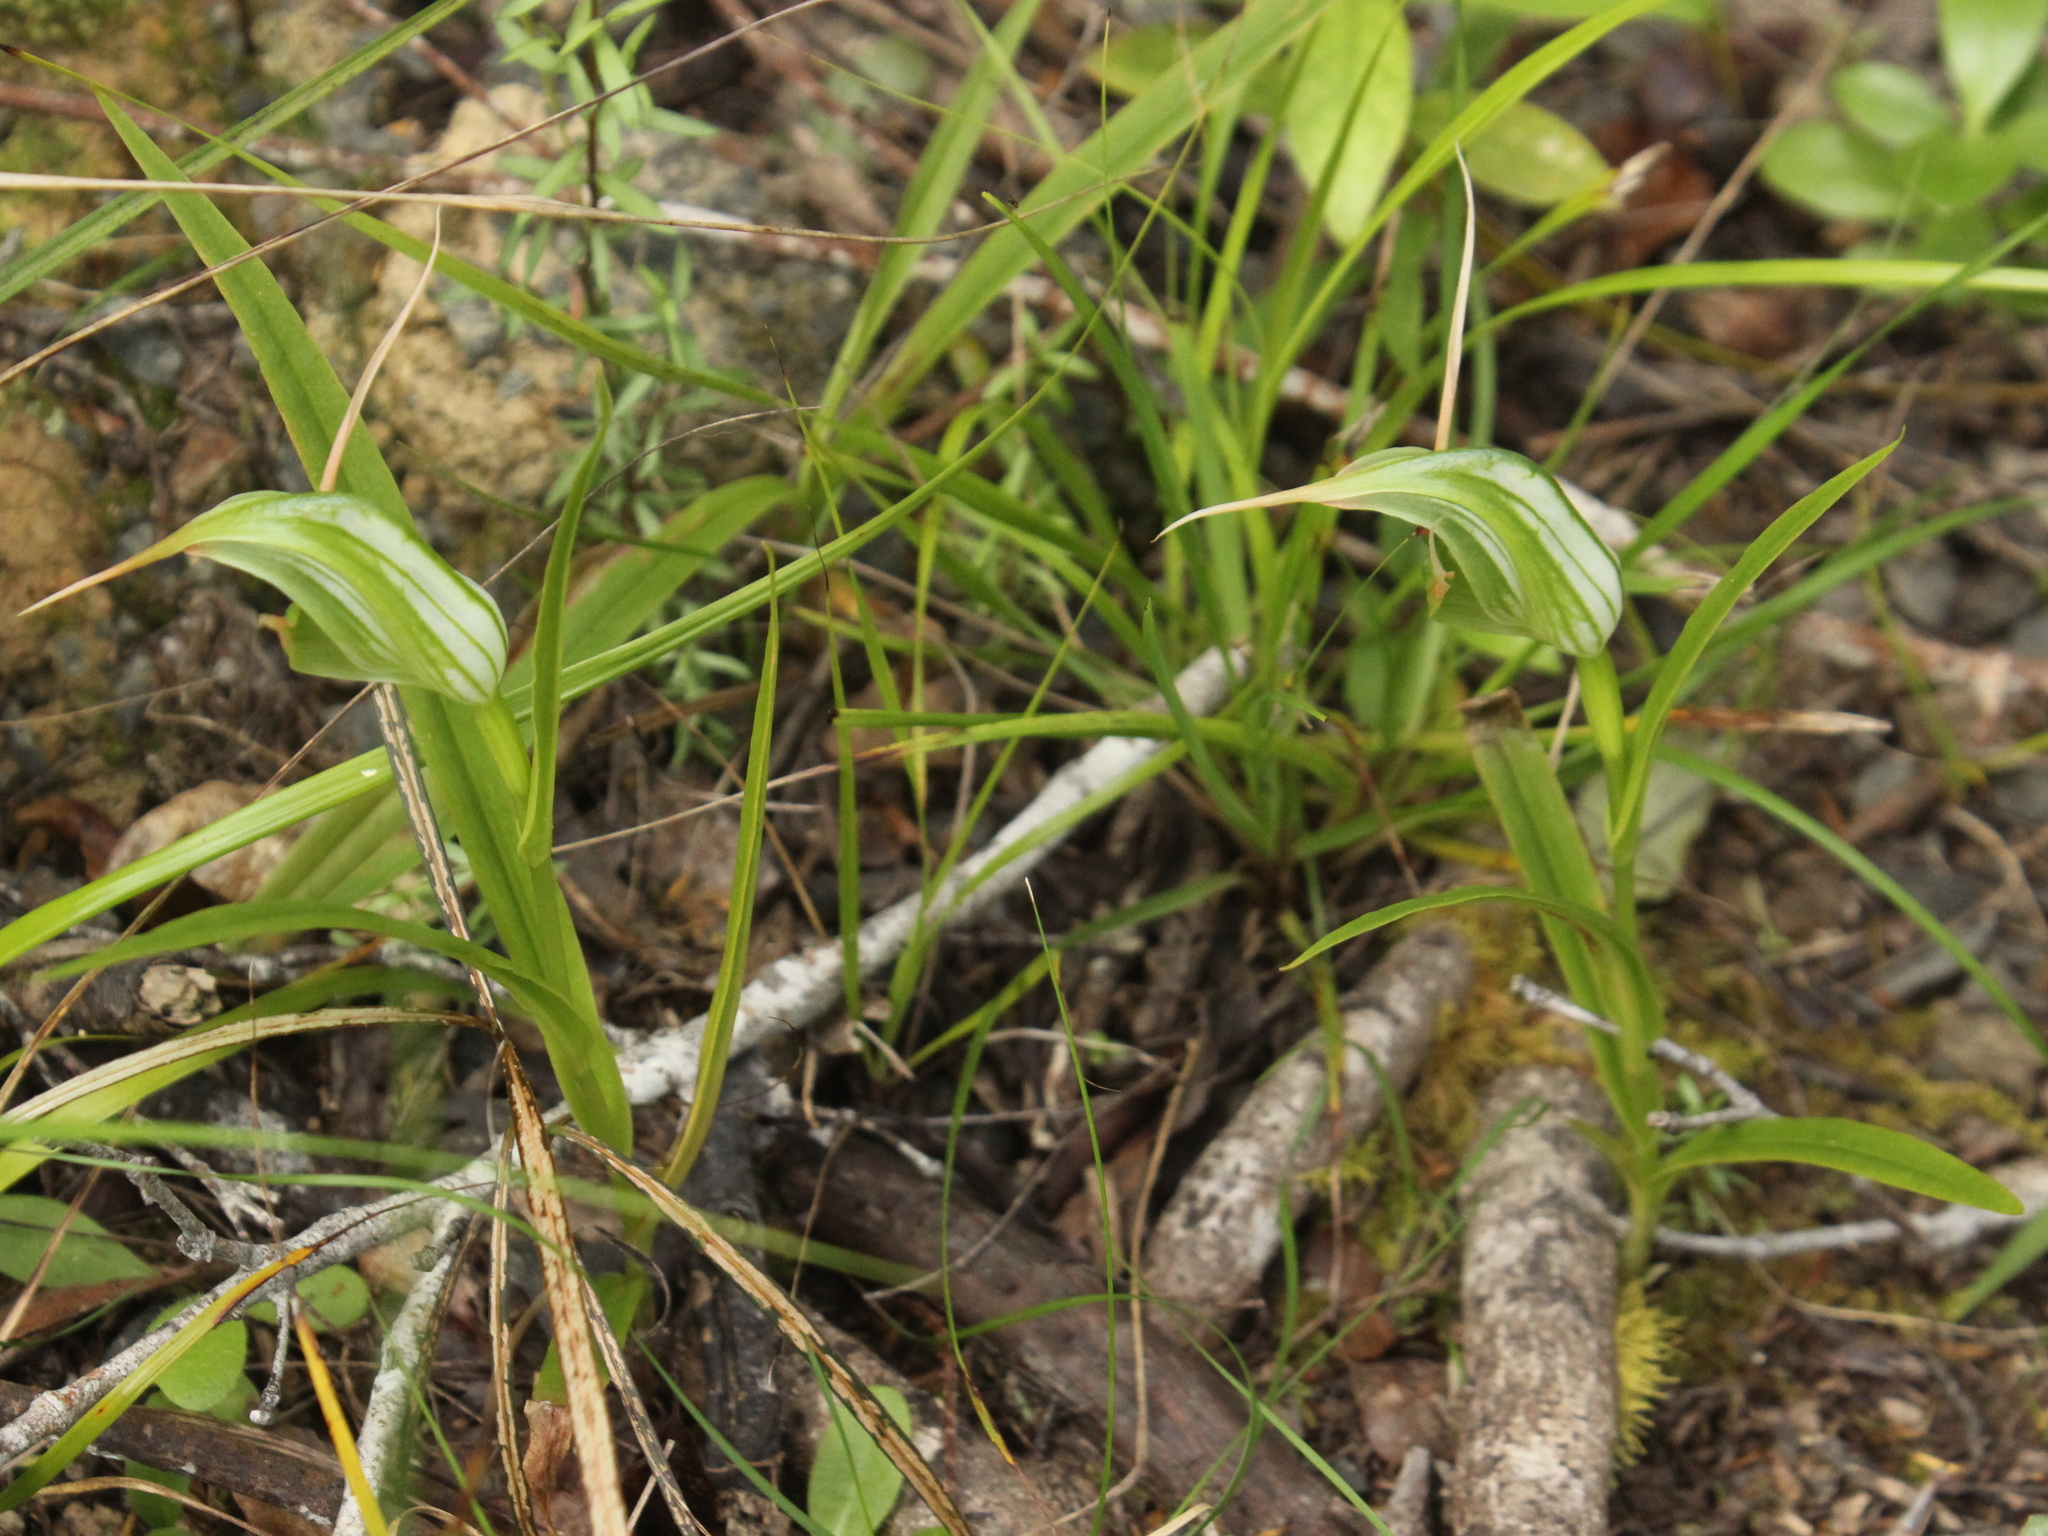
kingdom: Plantae
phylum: Tracheophyta
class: Liliopsida
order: Asparagales
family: Orchidaceae
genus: Pterostylis
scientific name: Pterostylis banksii
